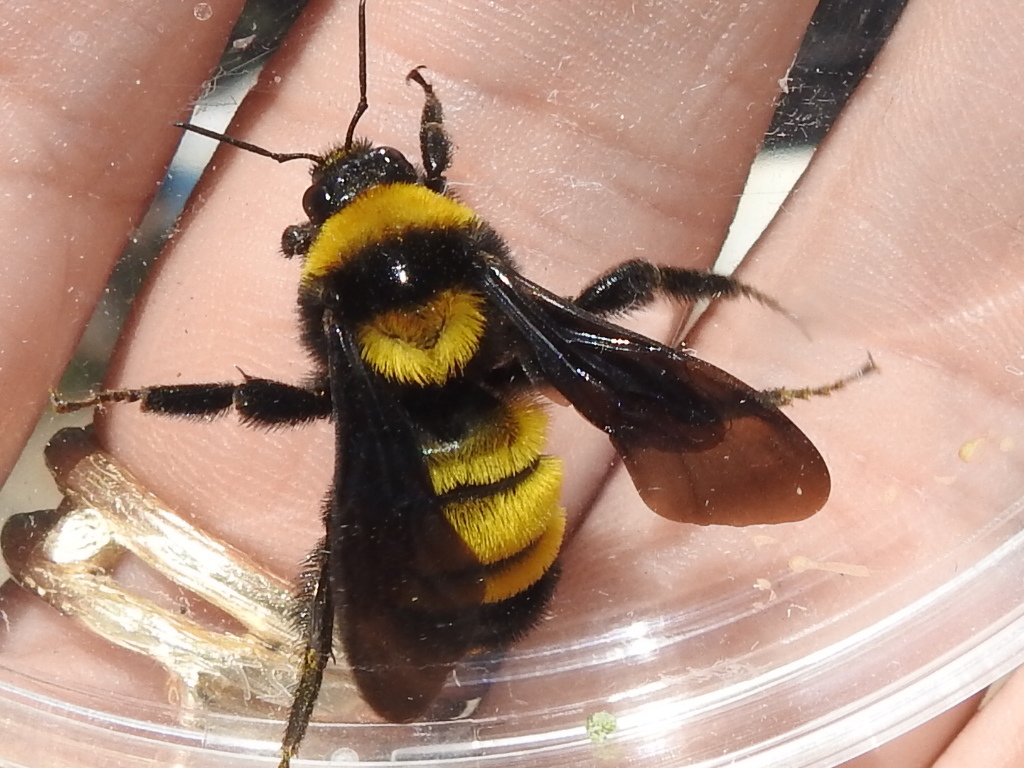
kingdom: Animalia
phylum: Arthropoda
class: Insecta
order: Hymenoptera
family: Apidae
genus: Bombus
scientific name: Bombus sonorus
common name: Sonoran bumble bee
